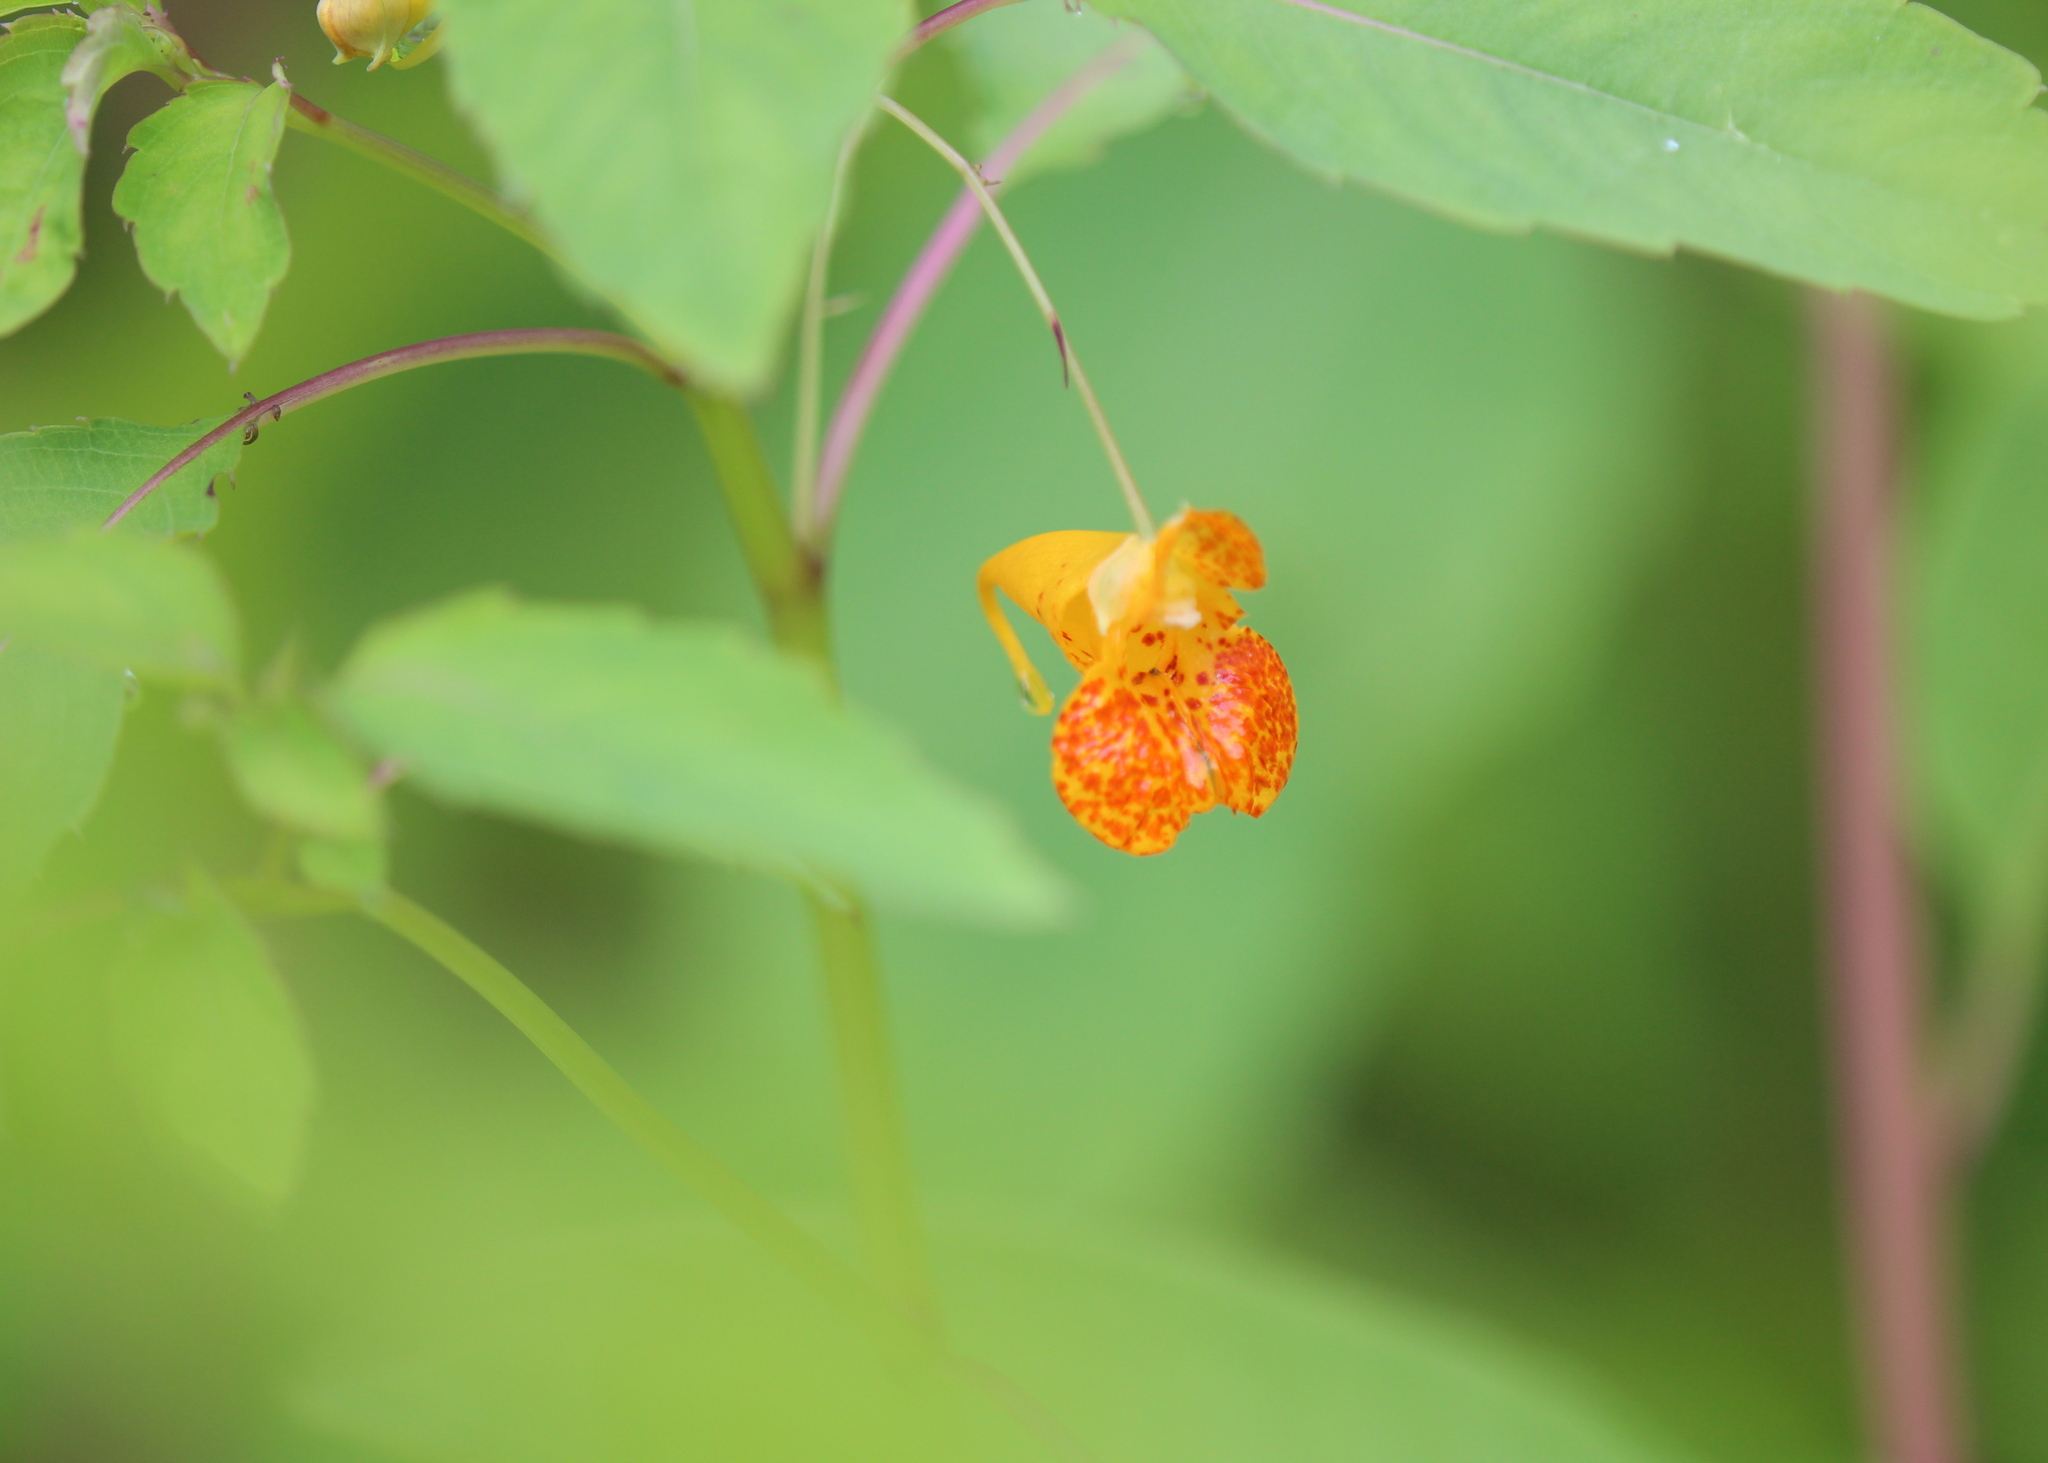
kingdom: Plantae
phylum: Tracheophyta
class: Magnoliopsida
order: Ericales
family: Balsaminaceae
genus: Impatiens
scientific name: Impatiens capensis
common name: Orange balsam
